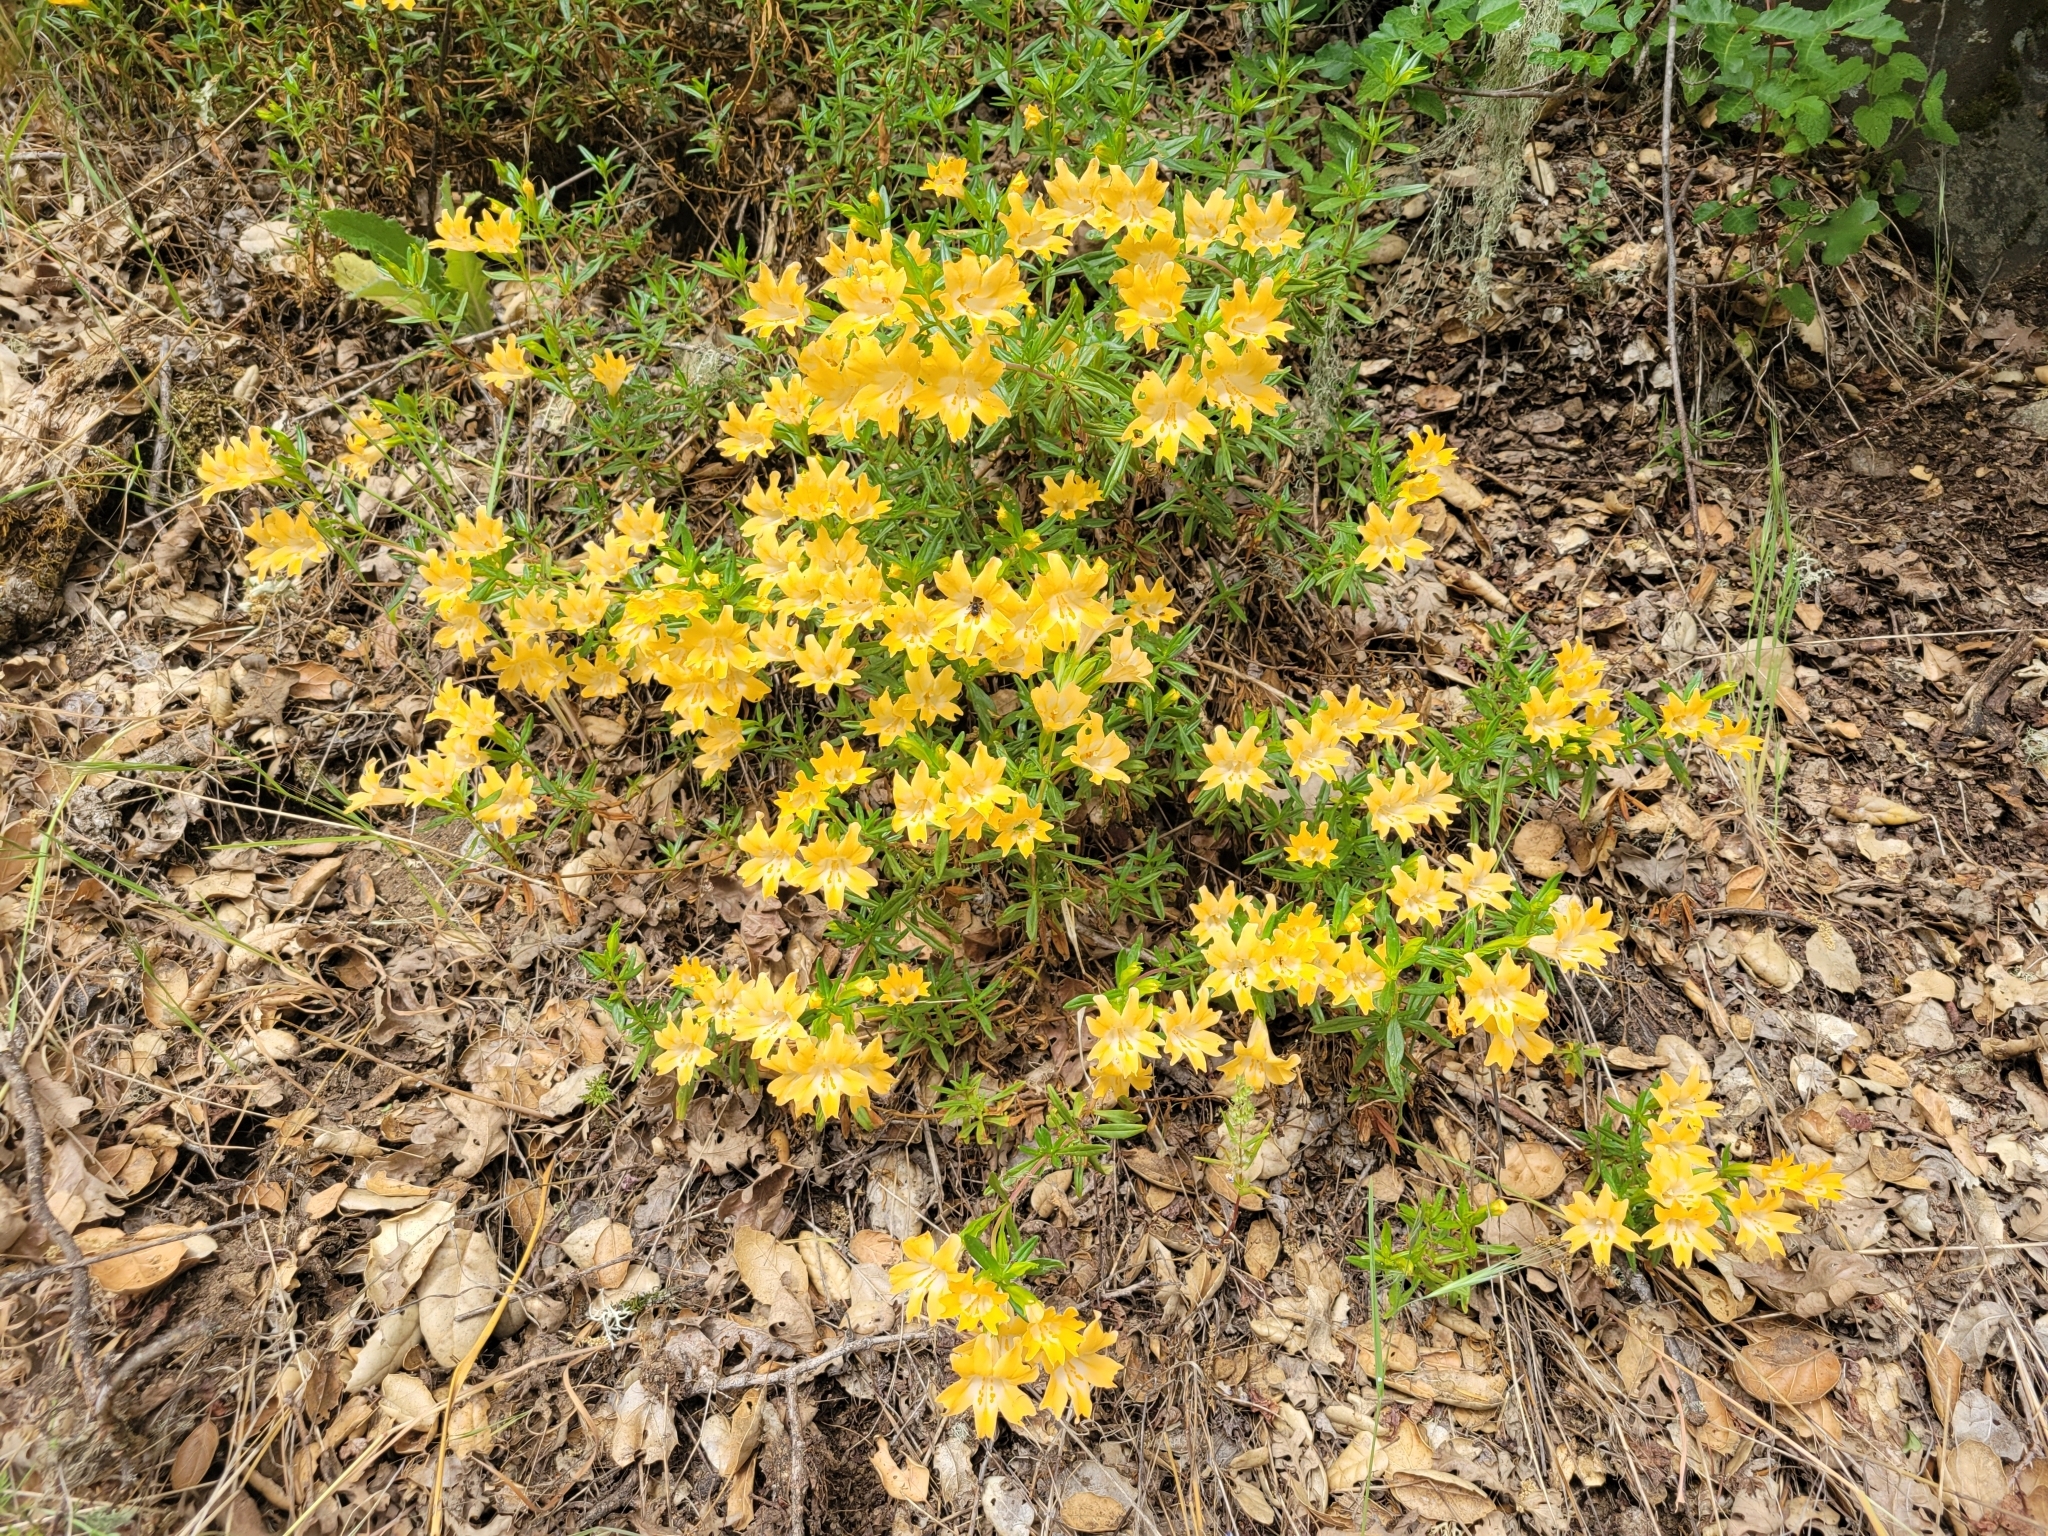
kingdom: Plantae
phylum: Tracheophyta
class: Magnoliopsida
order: Lamiales
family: Phrymaceae
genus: Diplacus
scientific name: Diplacus aurantiacus
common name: Bush monkey-flower
